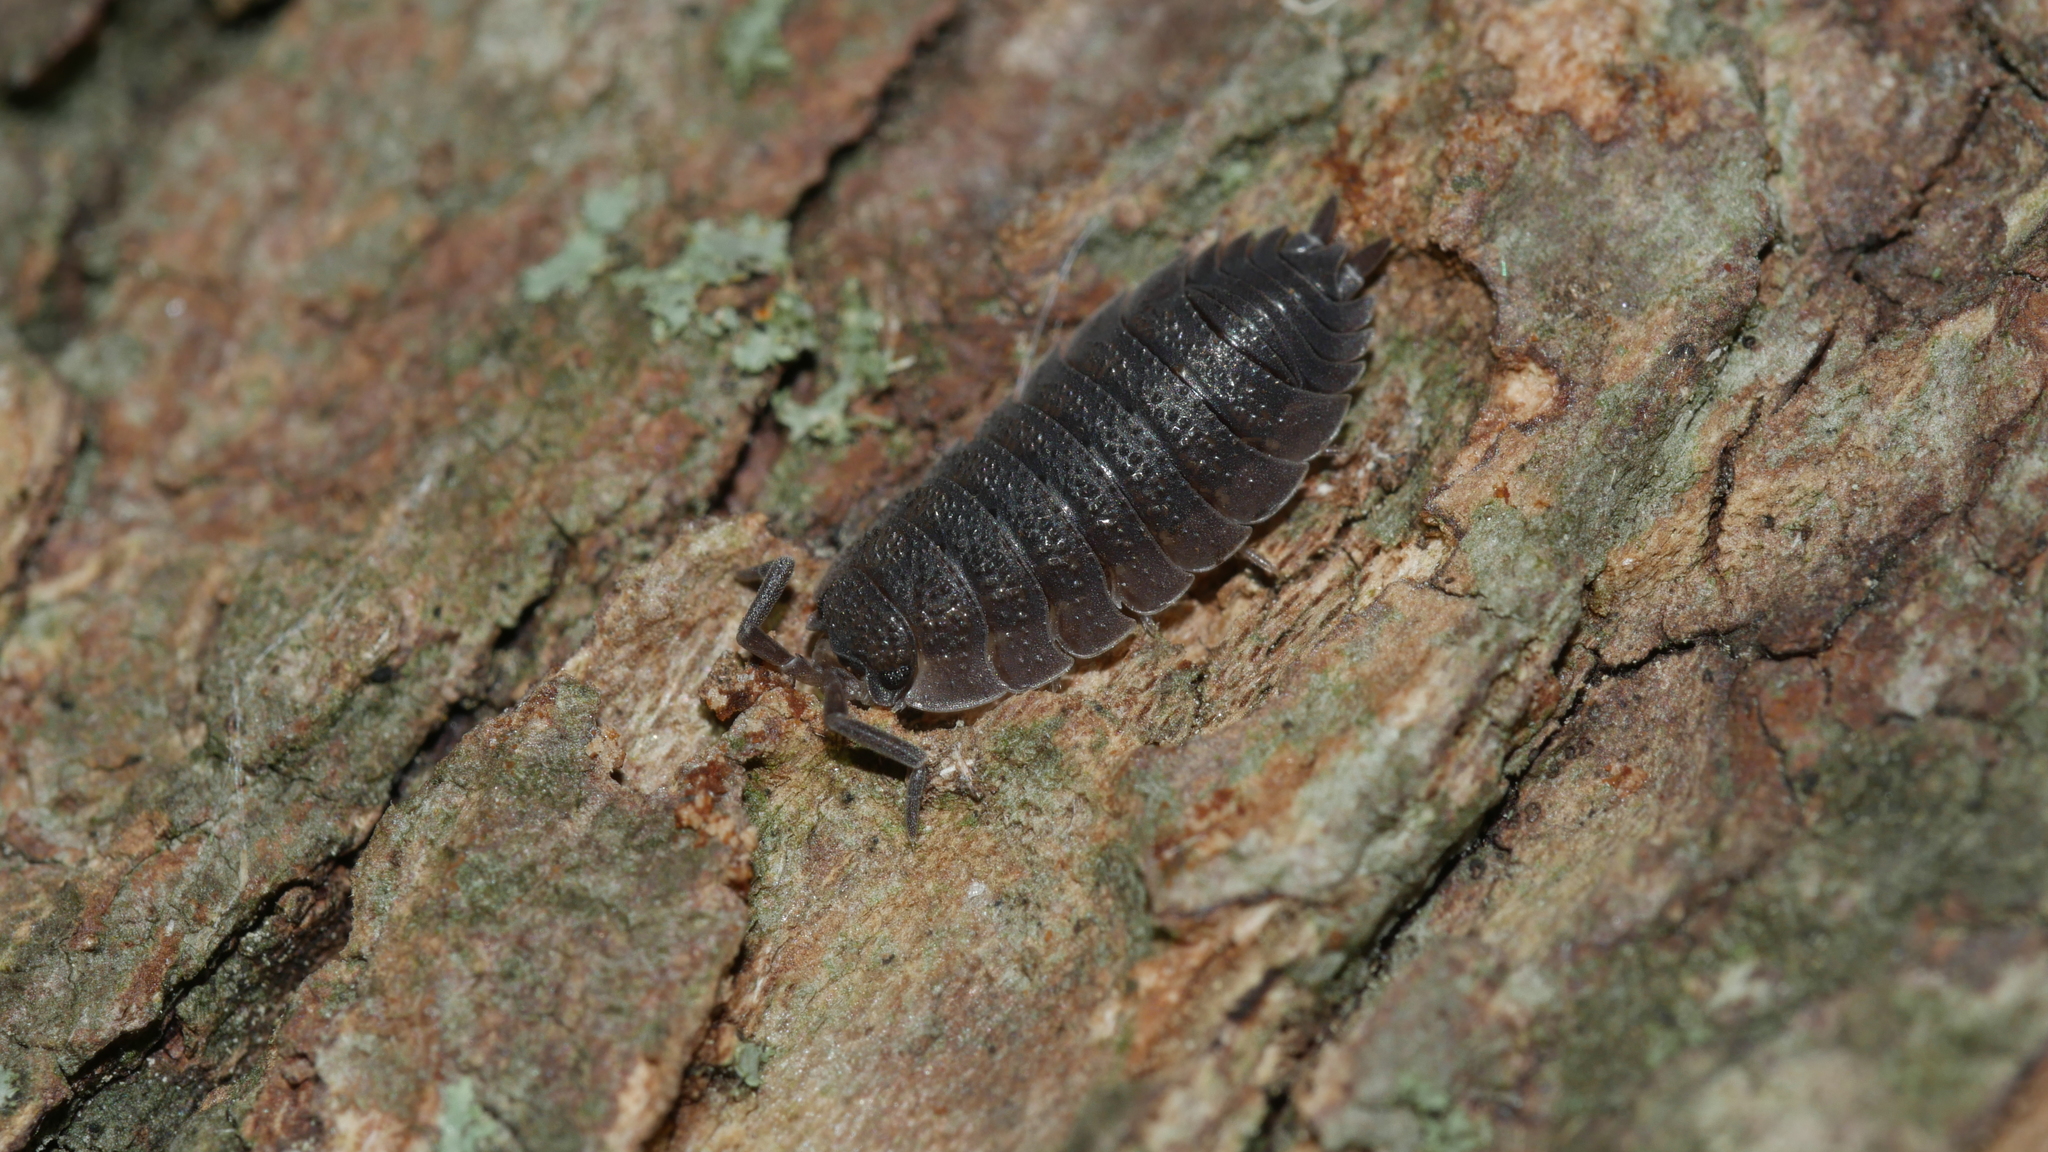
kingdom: Animalia
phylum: Arthropoda
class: Malacostraca
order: Isopoda
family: Porcellionidae
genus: Porcellio
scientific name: Porcellio scaber
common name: Common rough woodlouse
